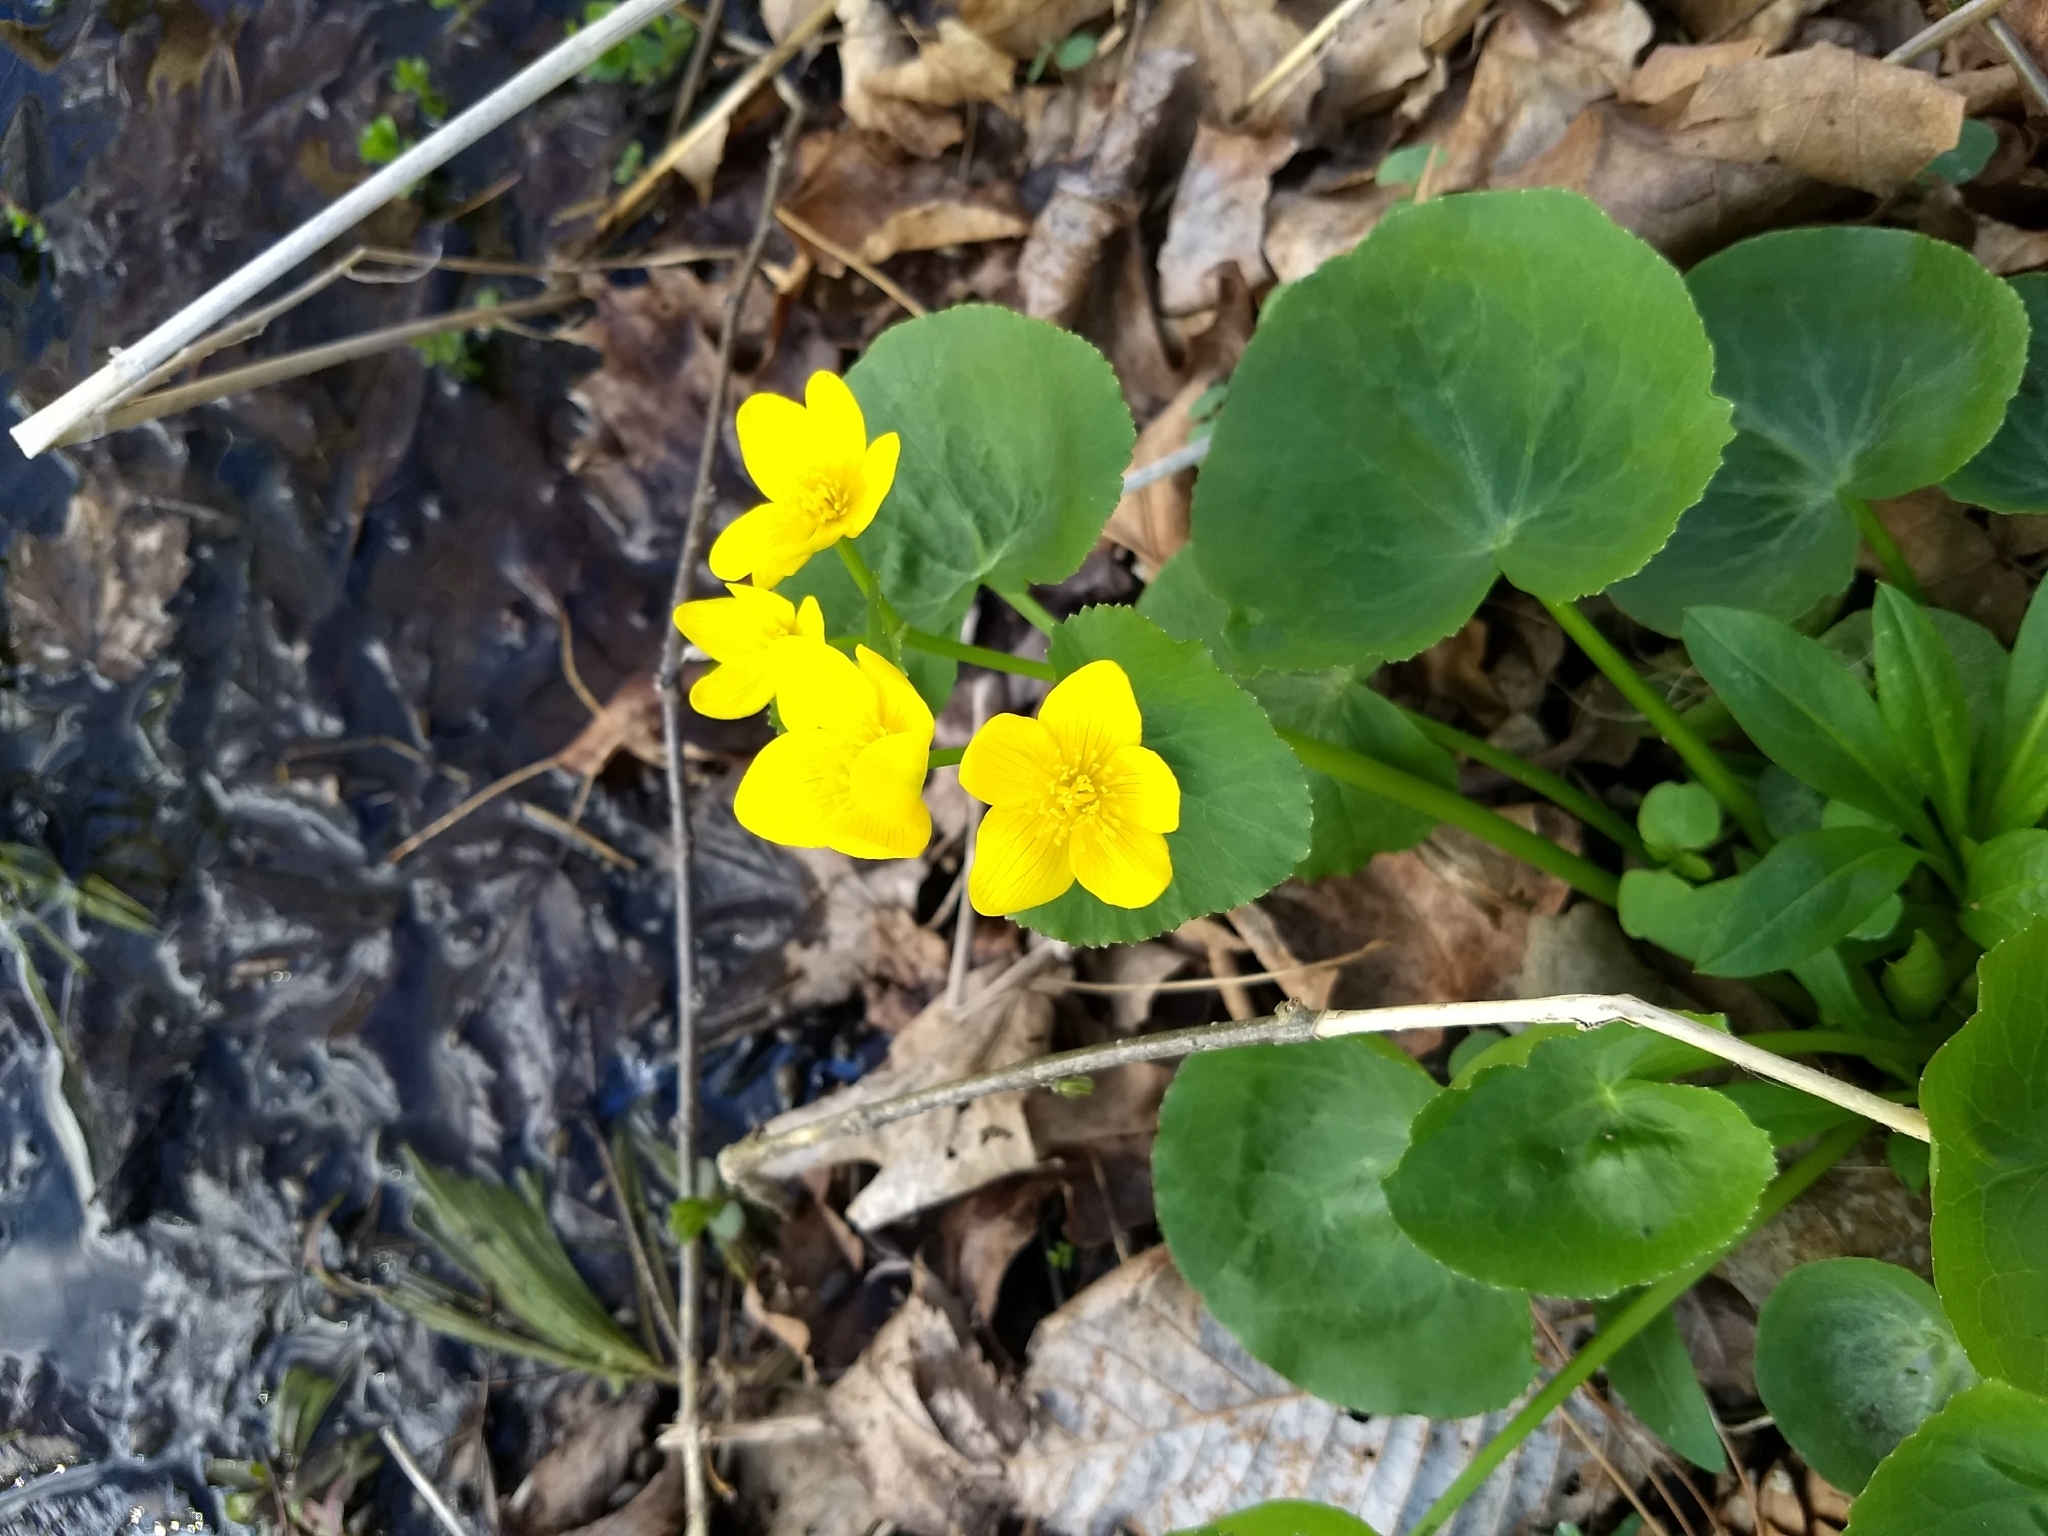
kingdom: Plantae
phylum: Tracheophyta
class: Magnoliopsida
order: Ranunculales
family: Ranunculaceae
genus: Caltha
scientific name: Caltha palustris
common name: Marsh marigold
